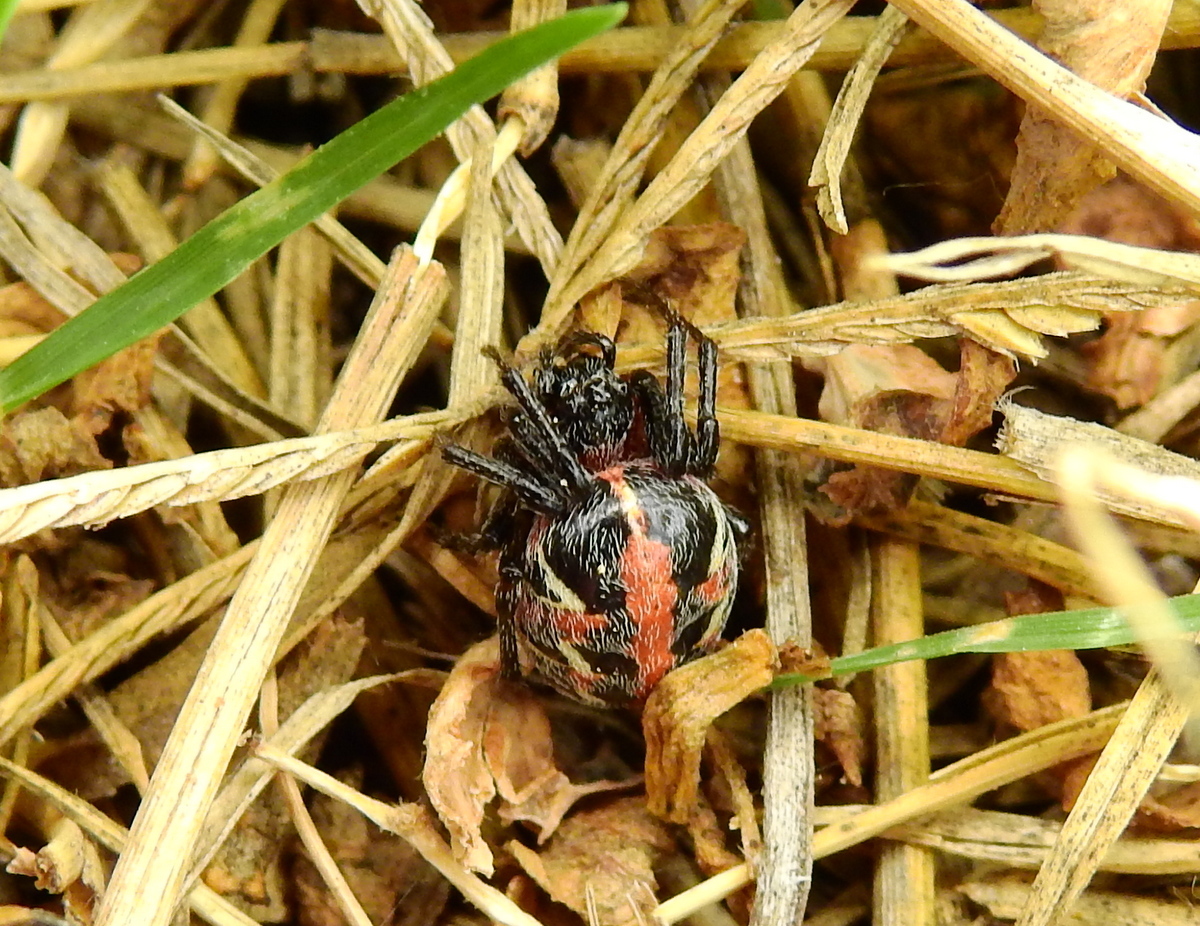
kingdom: Animalia
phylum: Arthropoda
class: Arachnida
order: Araneae
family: Araneidae
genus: Alpaida
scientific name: Alpaida versicolor
